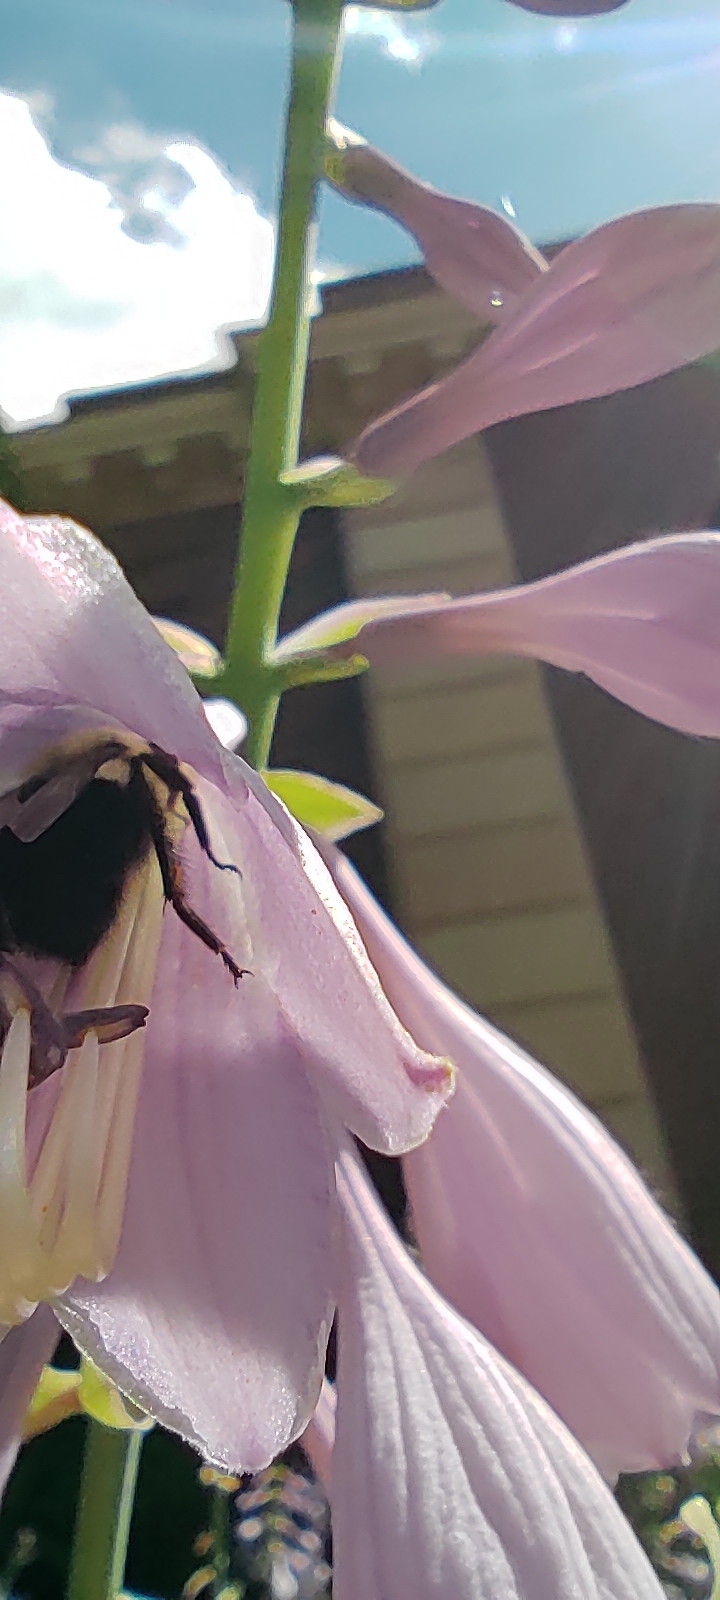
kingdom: Animalia
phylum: Arthropoda
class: Insecta
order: Hymenoptera
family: Apidae
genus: Bombus
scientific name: Bombus impatiens
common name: Common eastern bumble bee
